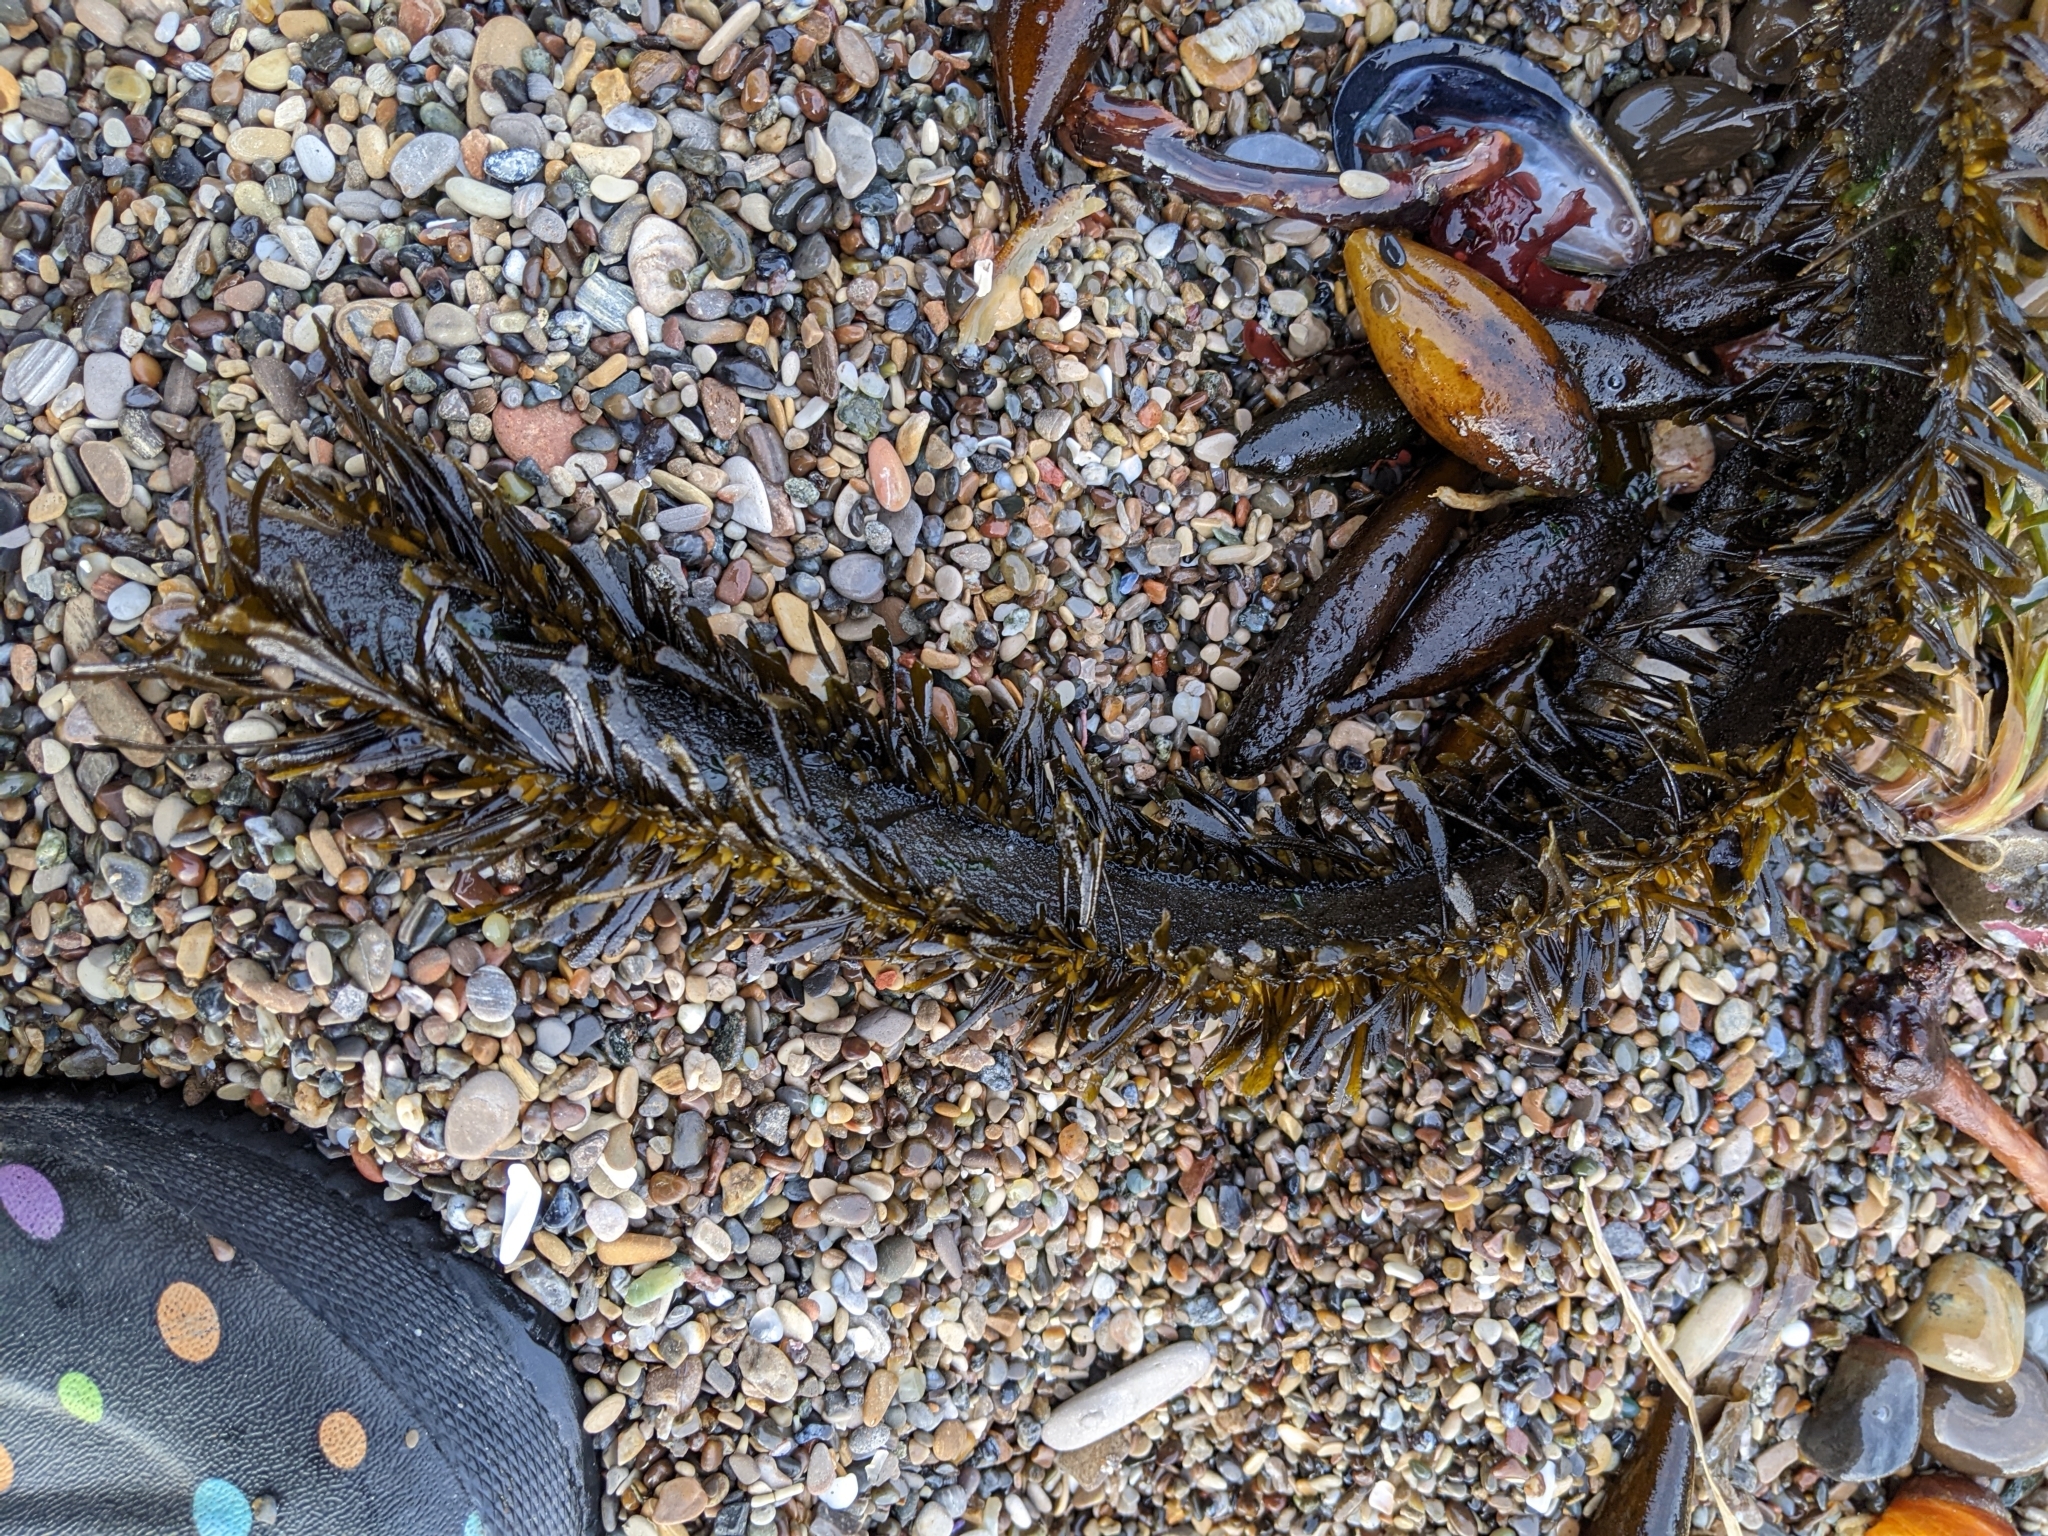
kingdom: Chromista
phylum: Ochrophyta
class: Phaeophyceae
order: Laminariales
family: Lessoniaceae
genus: Egregia
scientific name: Egregia menziesii
